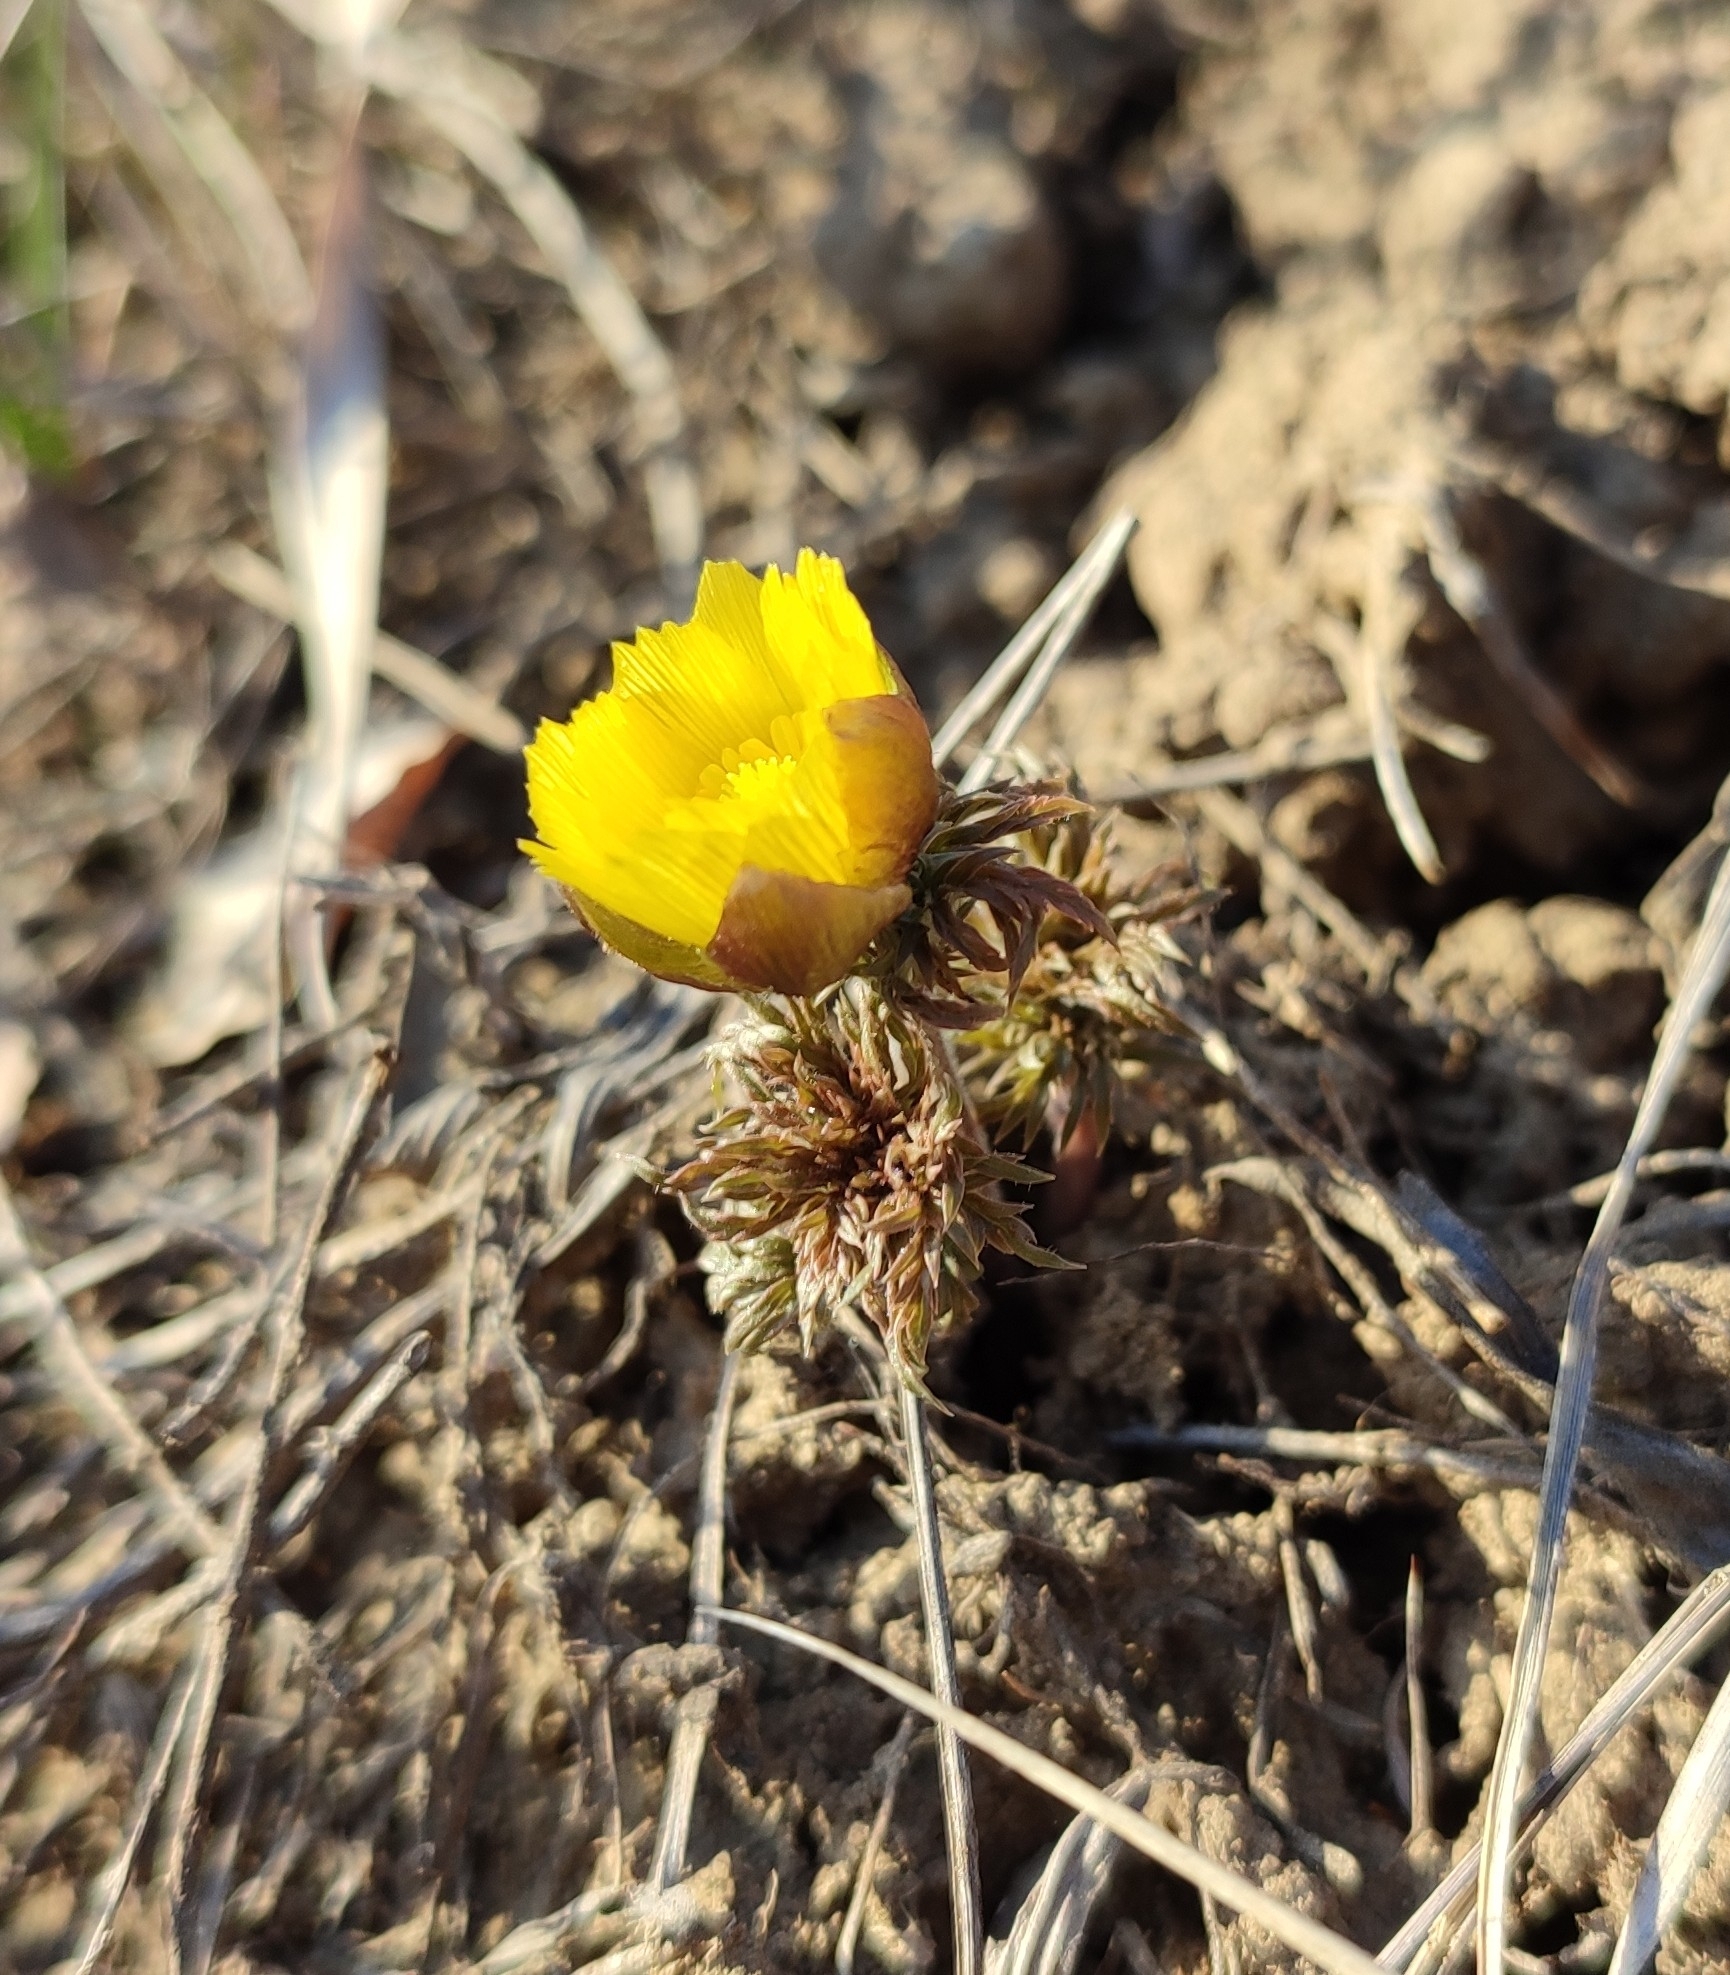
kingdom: Plantae
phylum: Tracheophyta
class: Magnoliopsida
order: Ranunculales
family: Ranunculaceae
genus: Adonis
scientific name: Adonis volgensis
